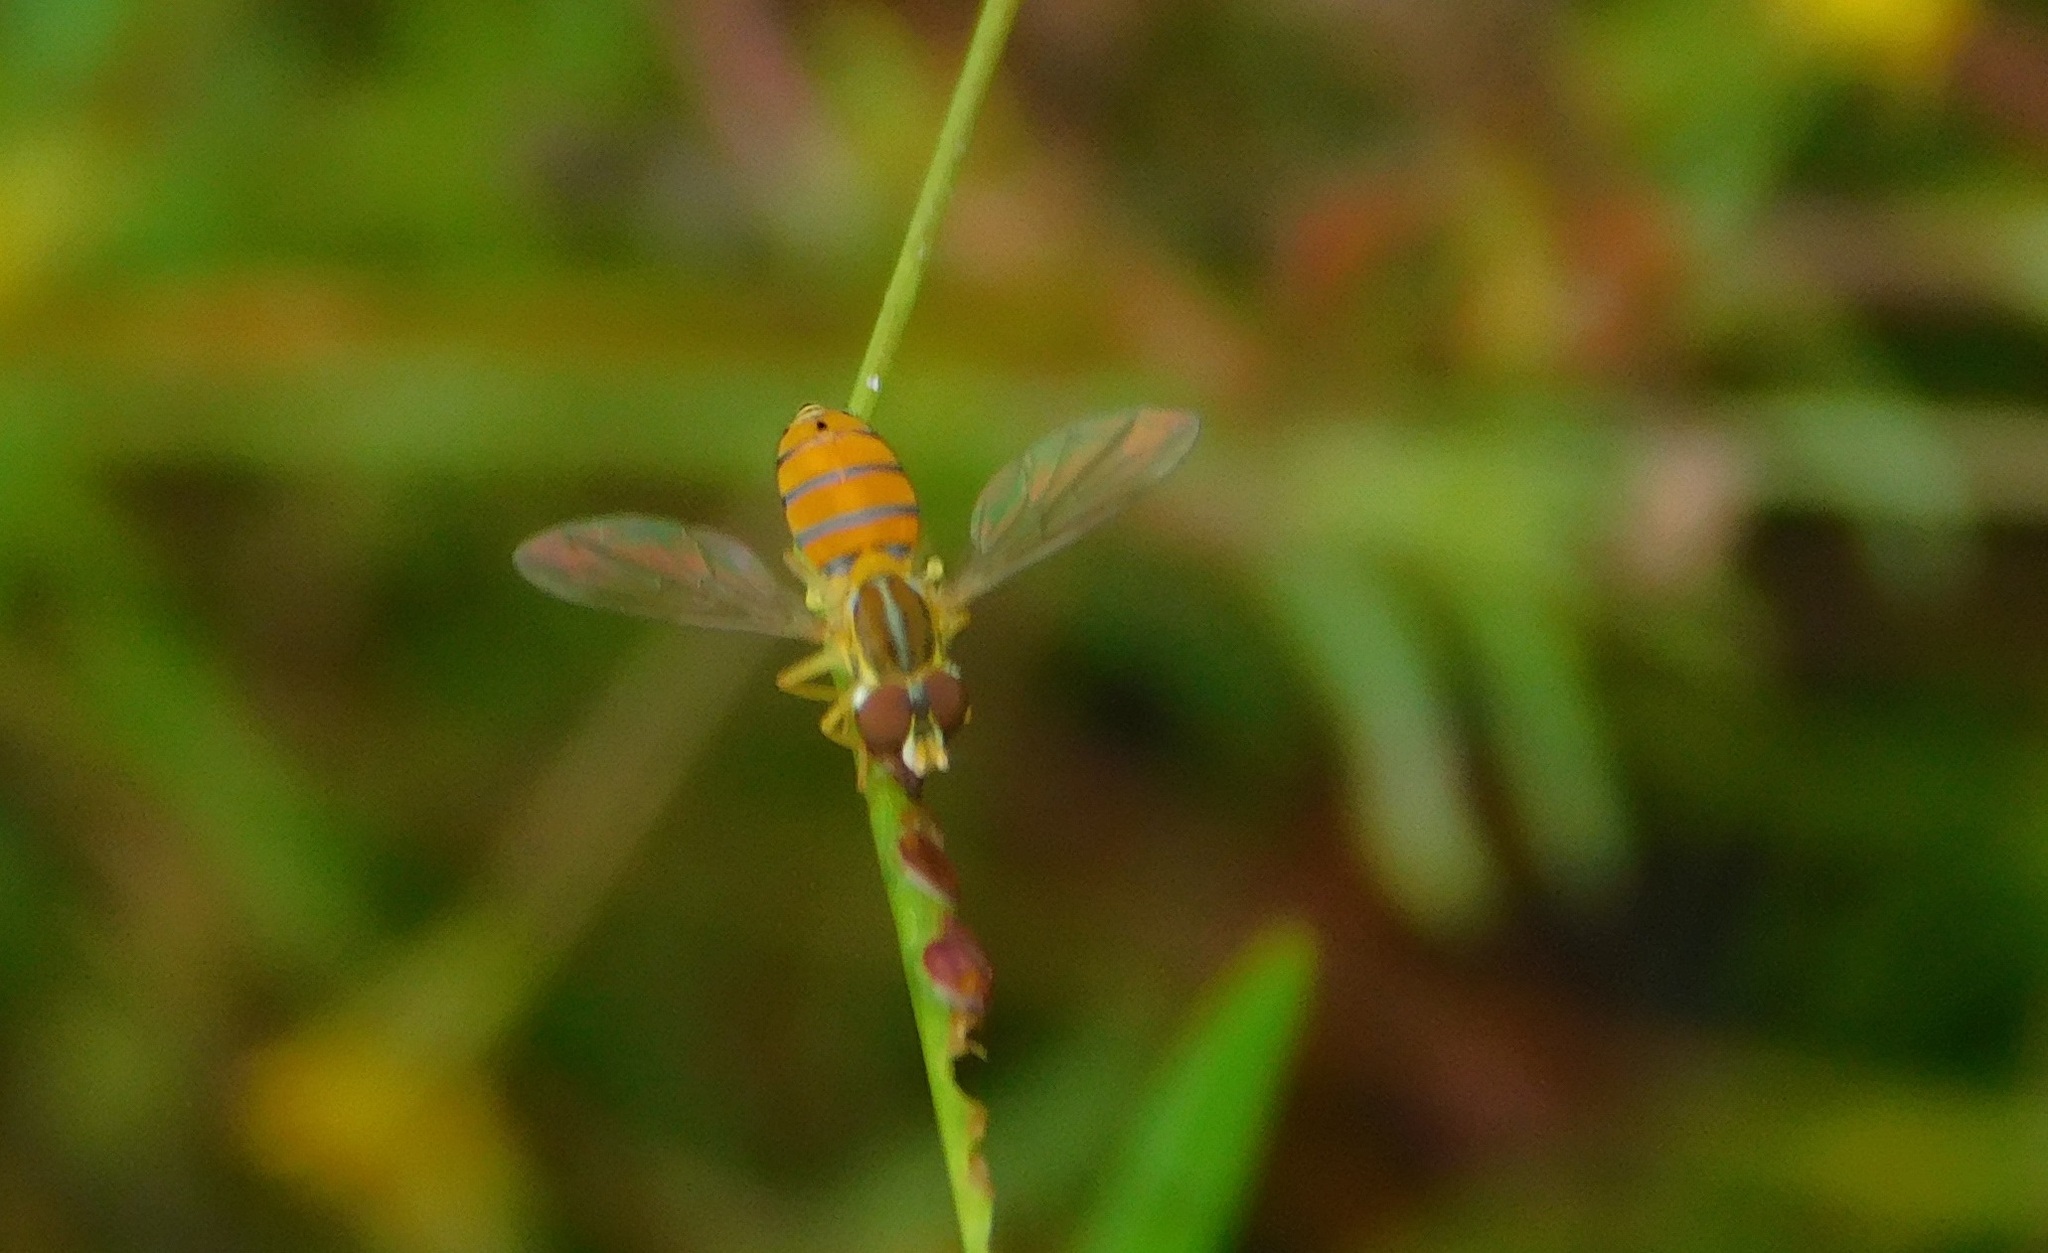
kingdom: Animalia
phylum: Arthropoda
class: Insecta
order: Diptera
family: Syrphidae
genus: Toxomerus
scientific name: Toxomerus corbis
